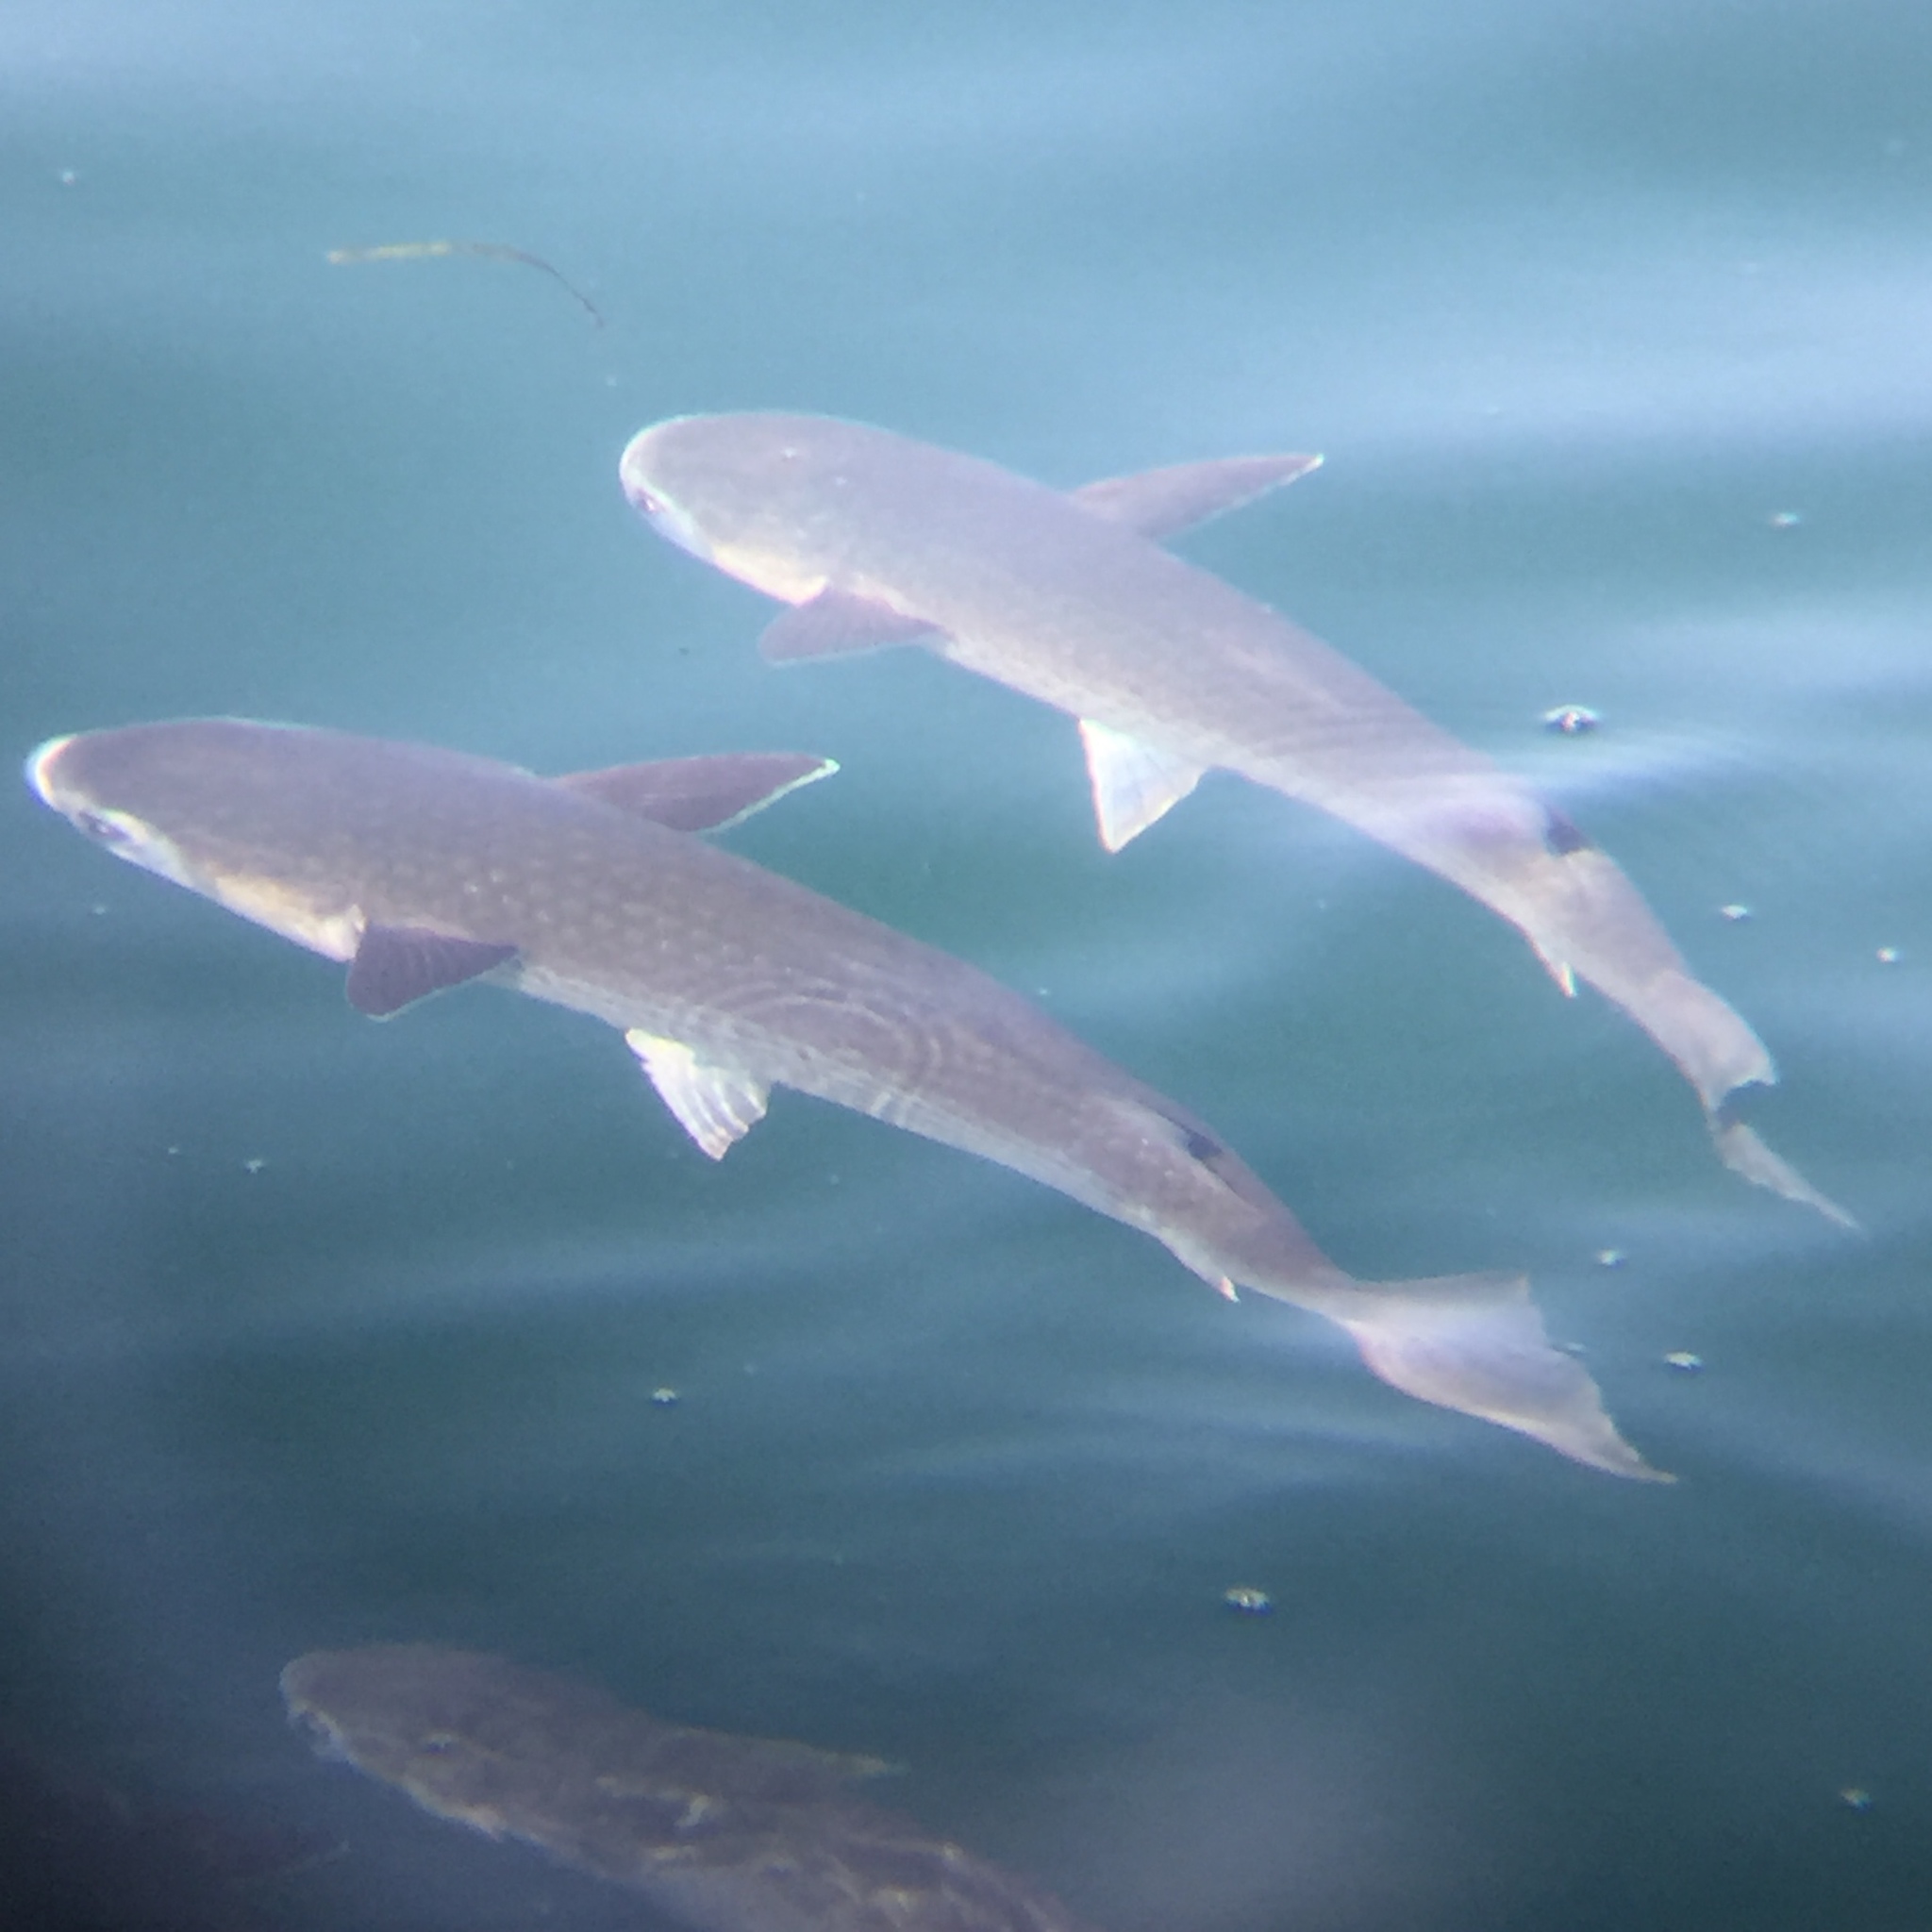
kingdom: Animalia
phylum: Chordata
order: Mugiliformes
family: Mugilidae
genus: Mugil
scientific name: Mugil cephalus
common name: Grey mullet
